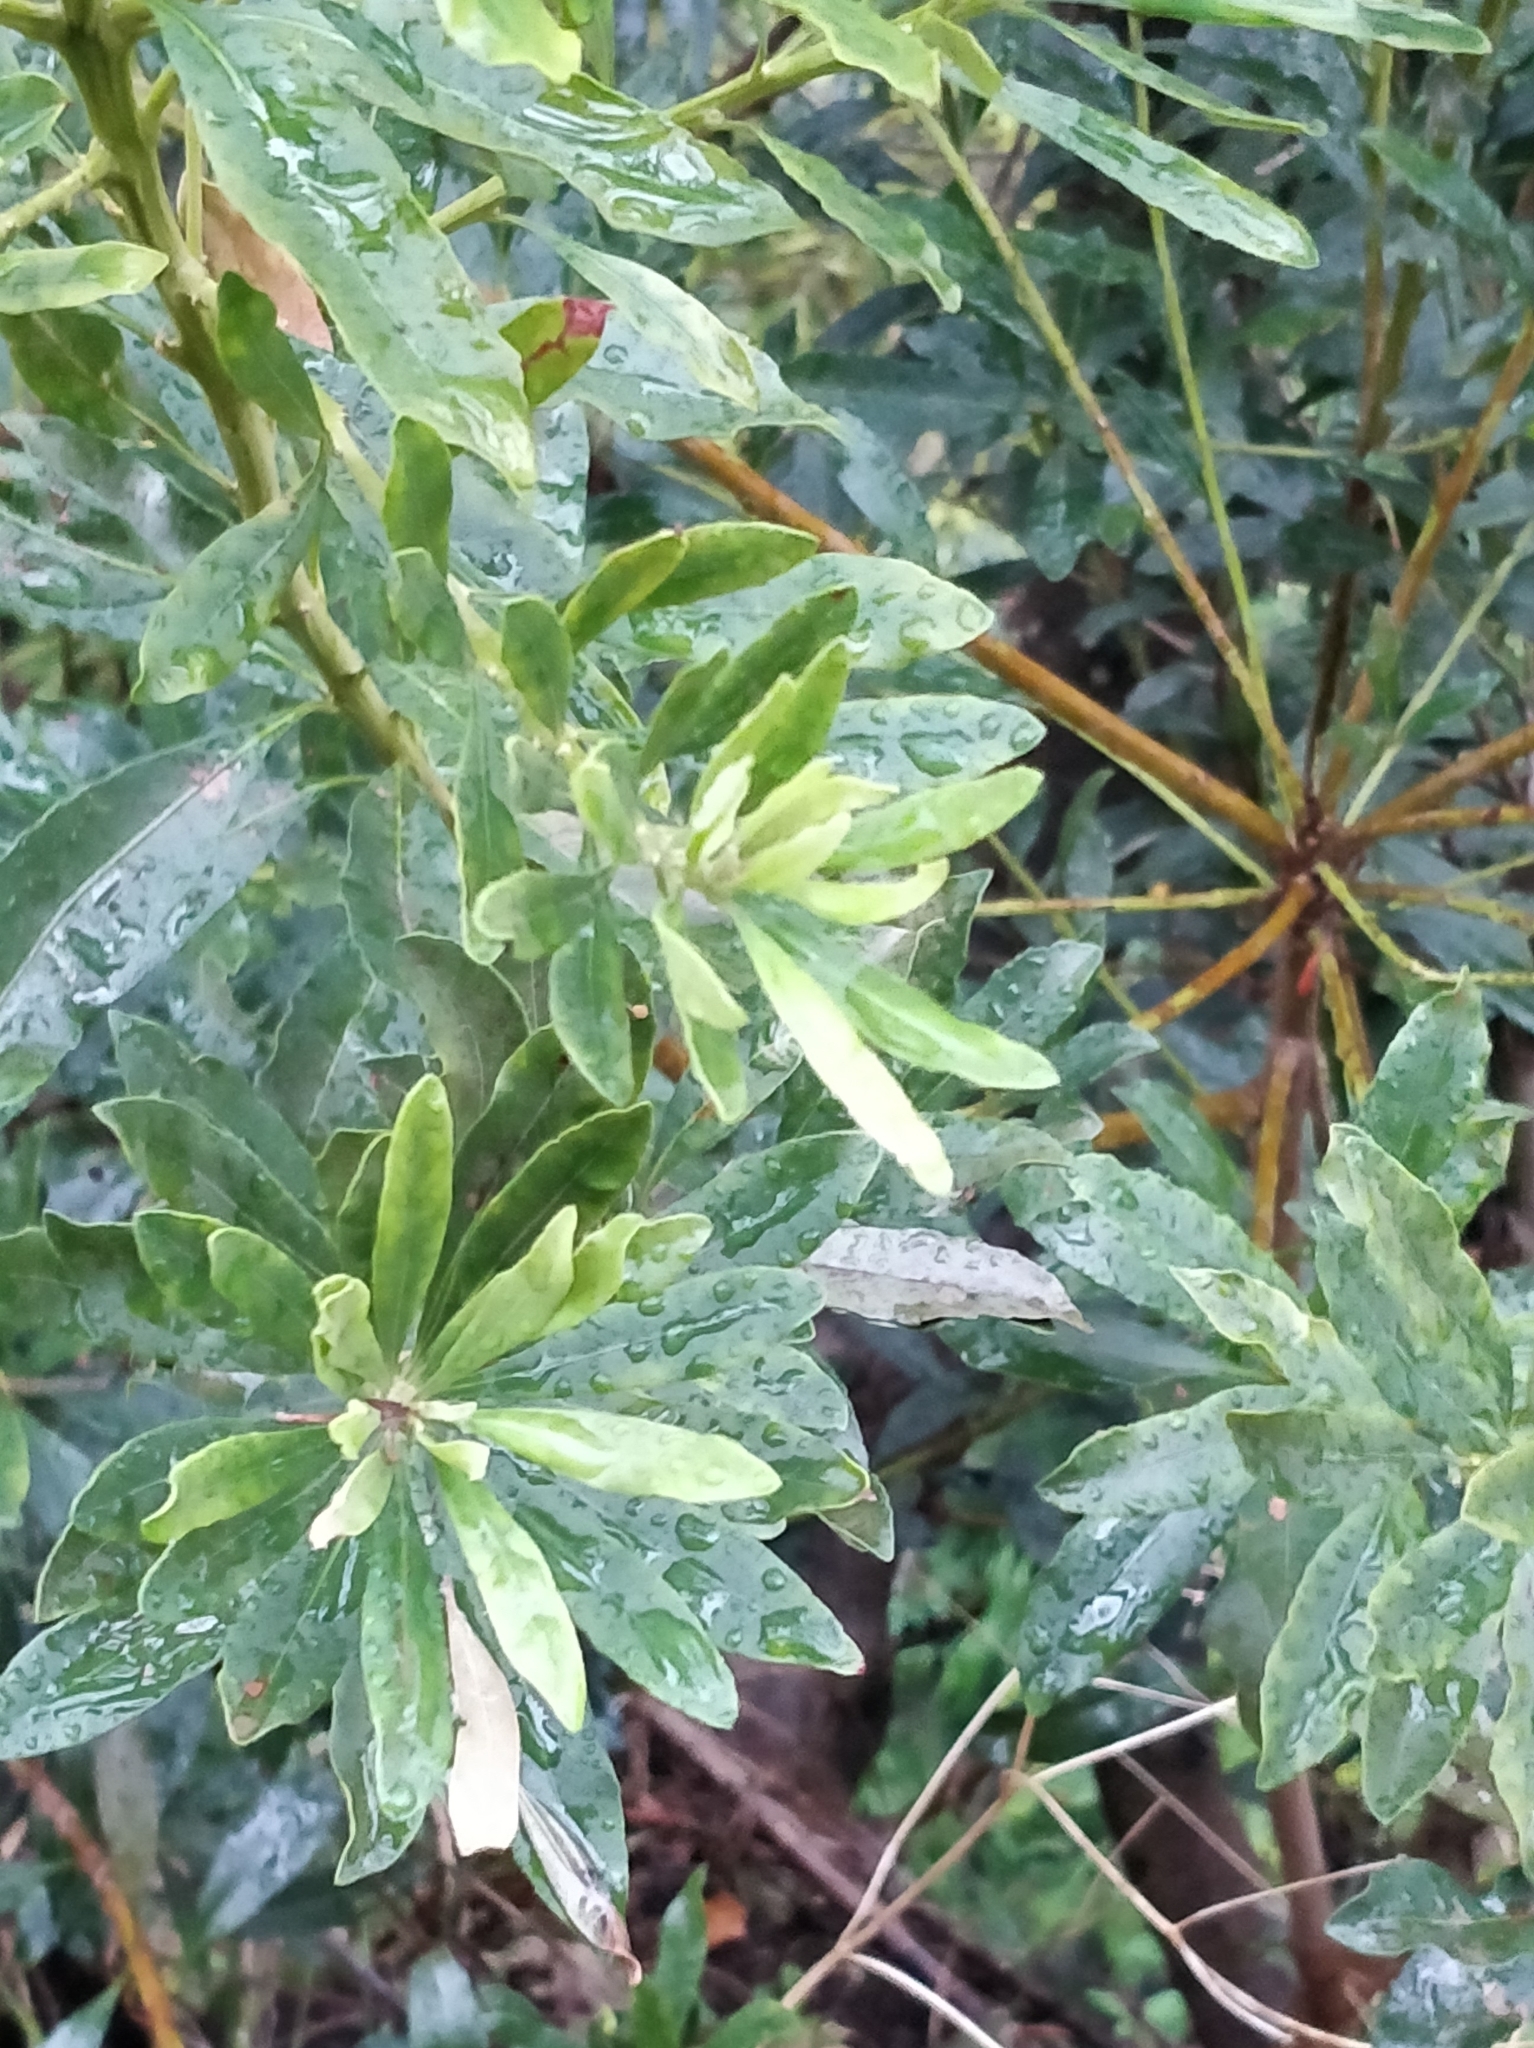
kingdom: Plantae
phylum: Tracheophyta
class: Magnoliopsida
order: Fagales
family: Myricaceae
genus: Morella
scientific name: Morella faya
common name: Firetree
